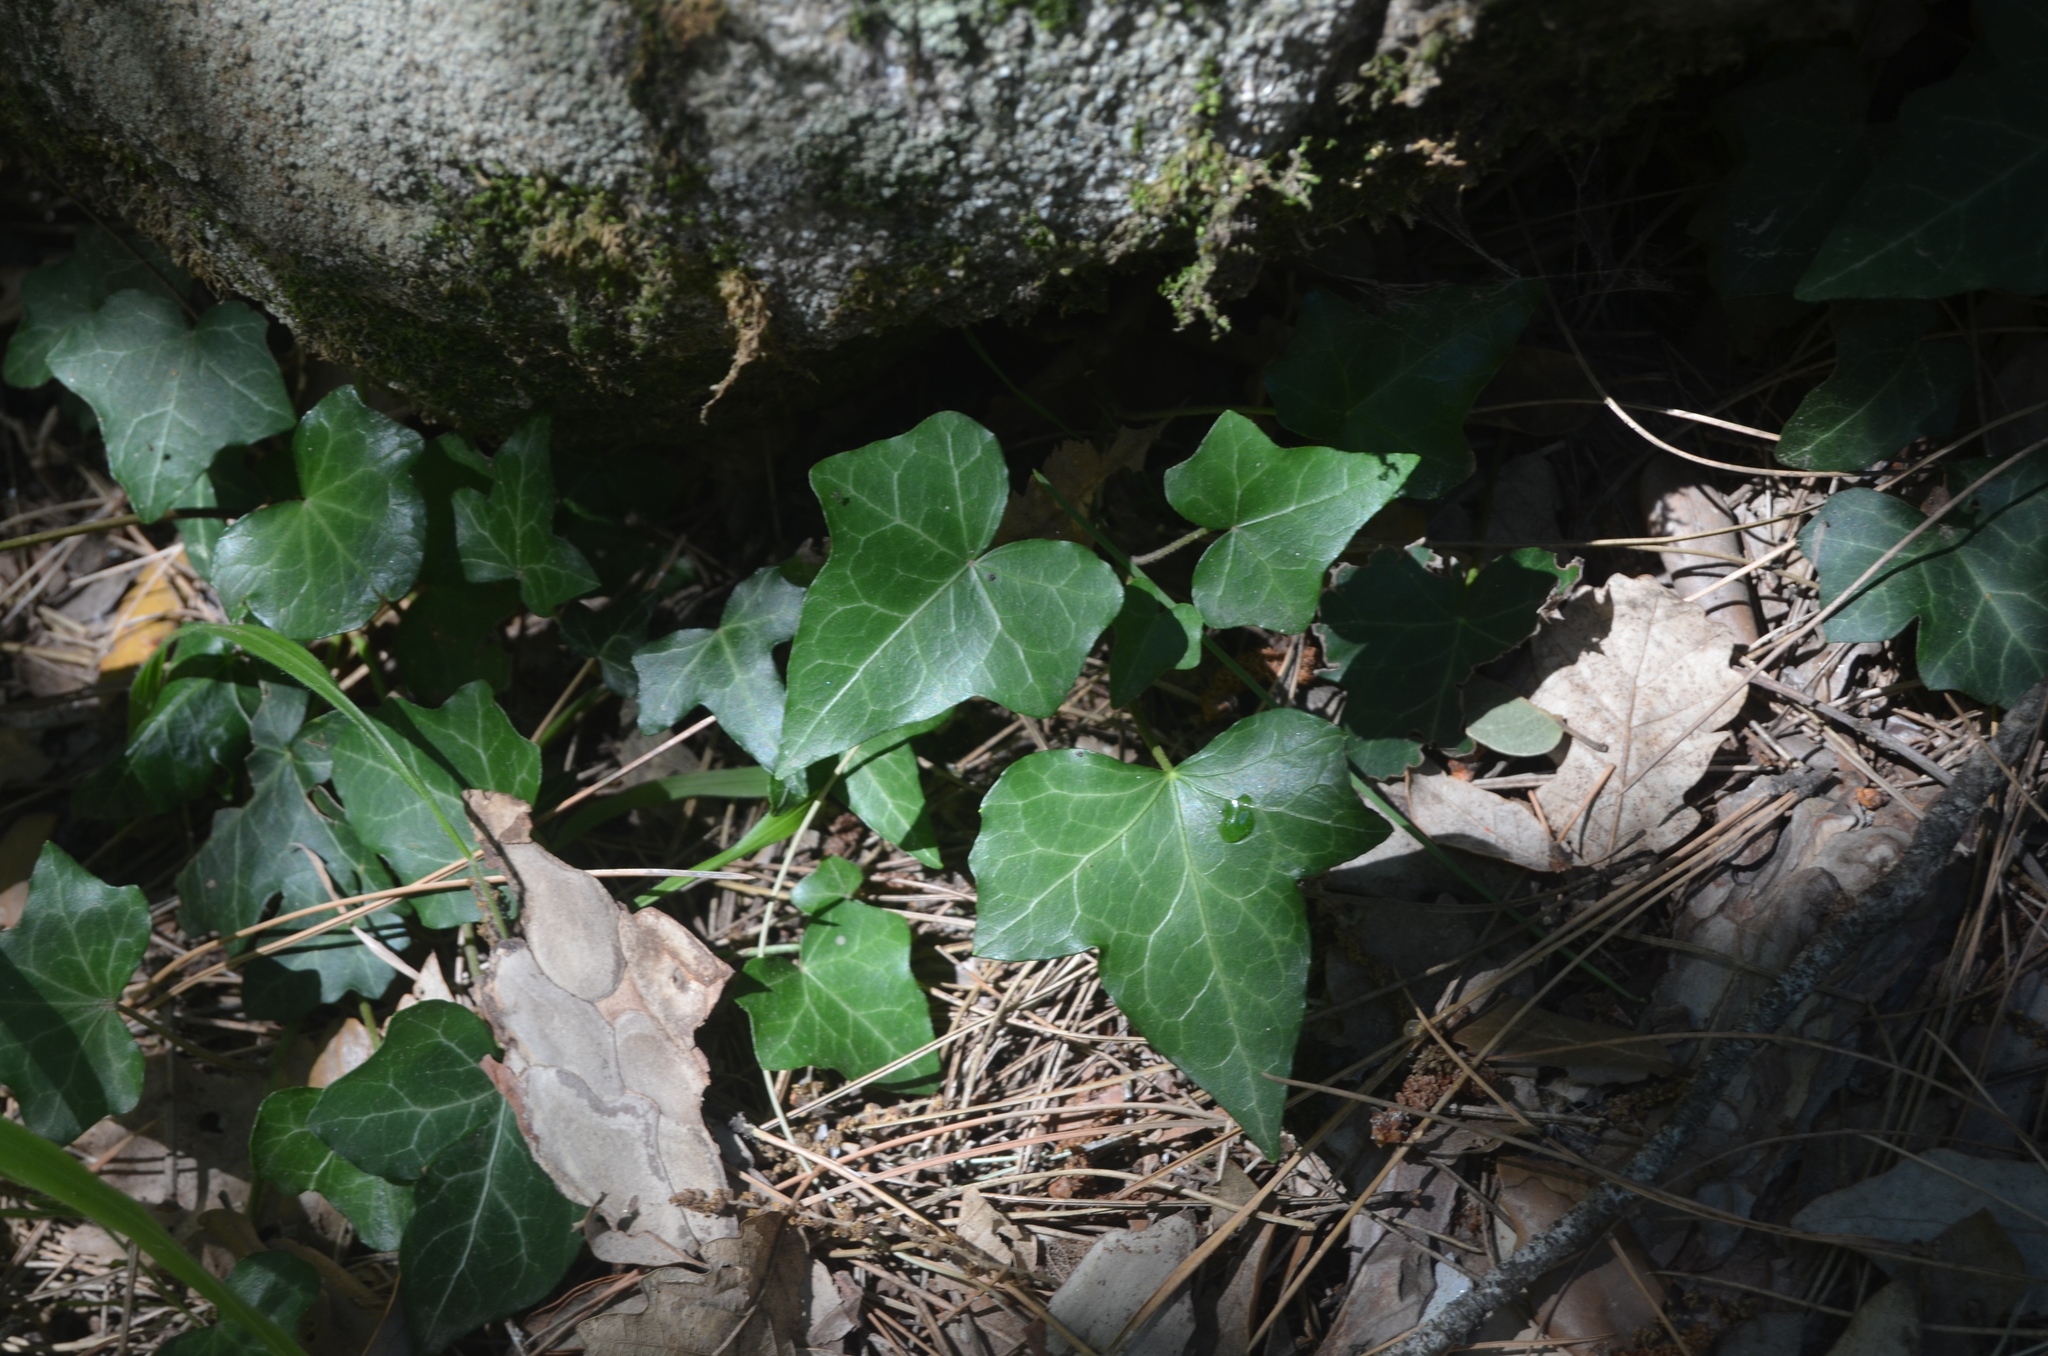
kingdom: Plantae
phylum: Tracheophyta
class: Magnoliopsida
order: Apiales
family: Araliaceae
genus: Hedera
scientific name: Hedera helix
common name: Ivy
